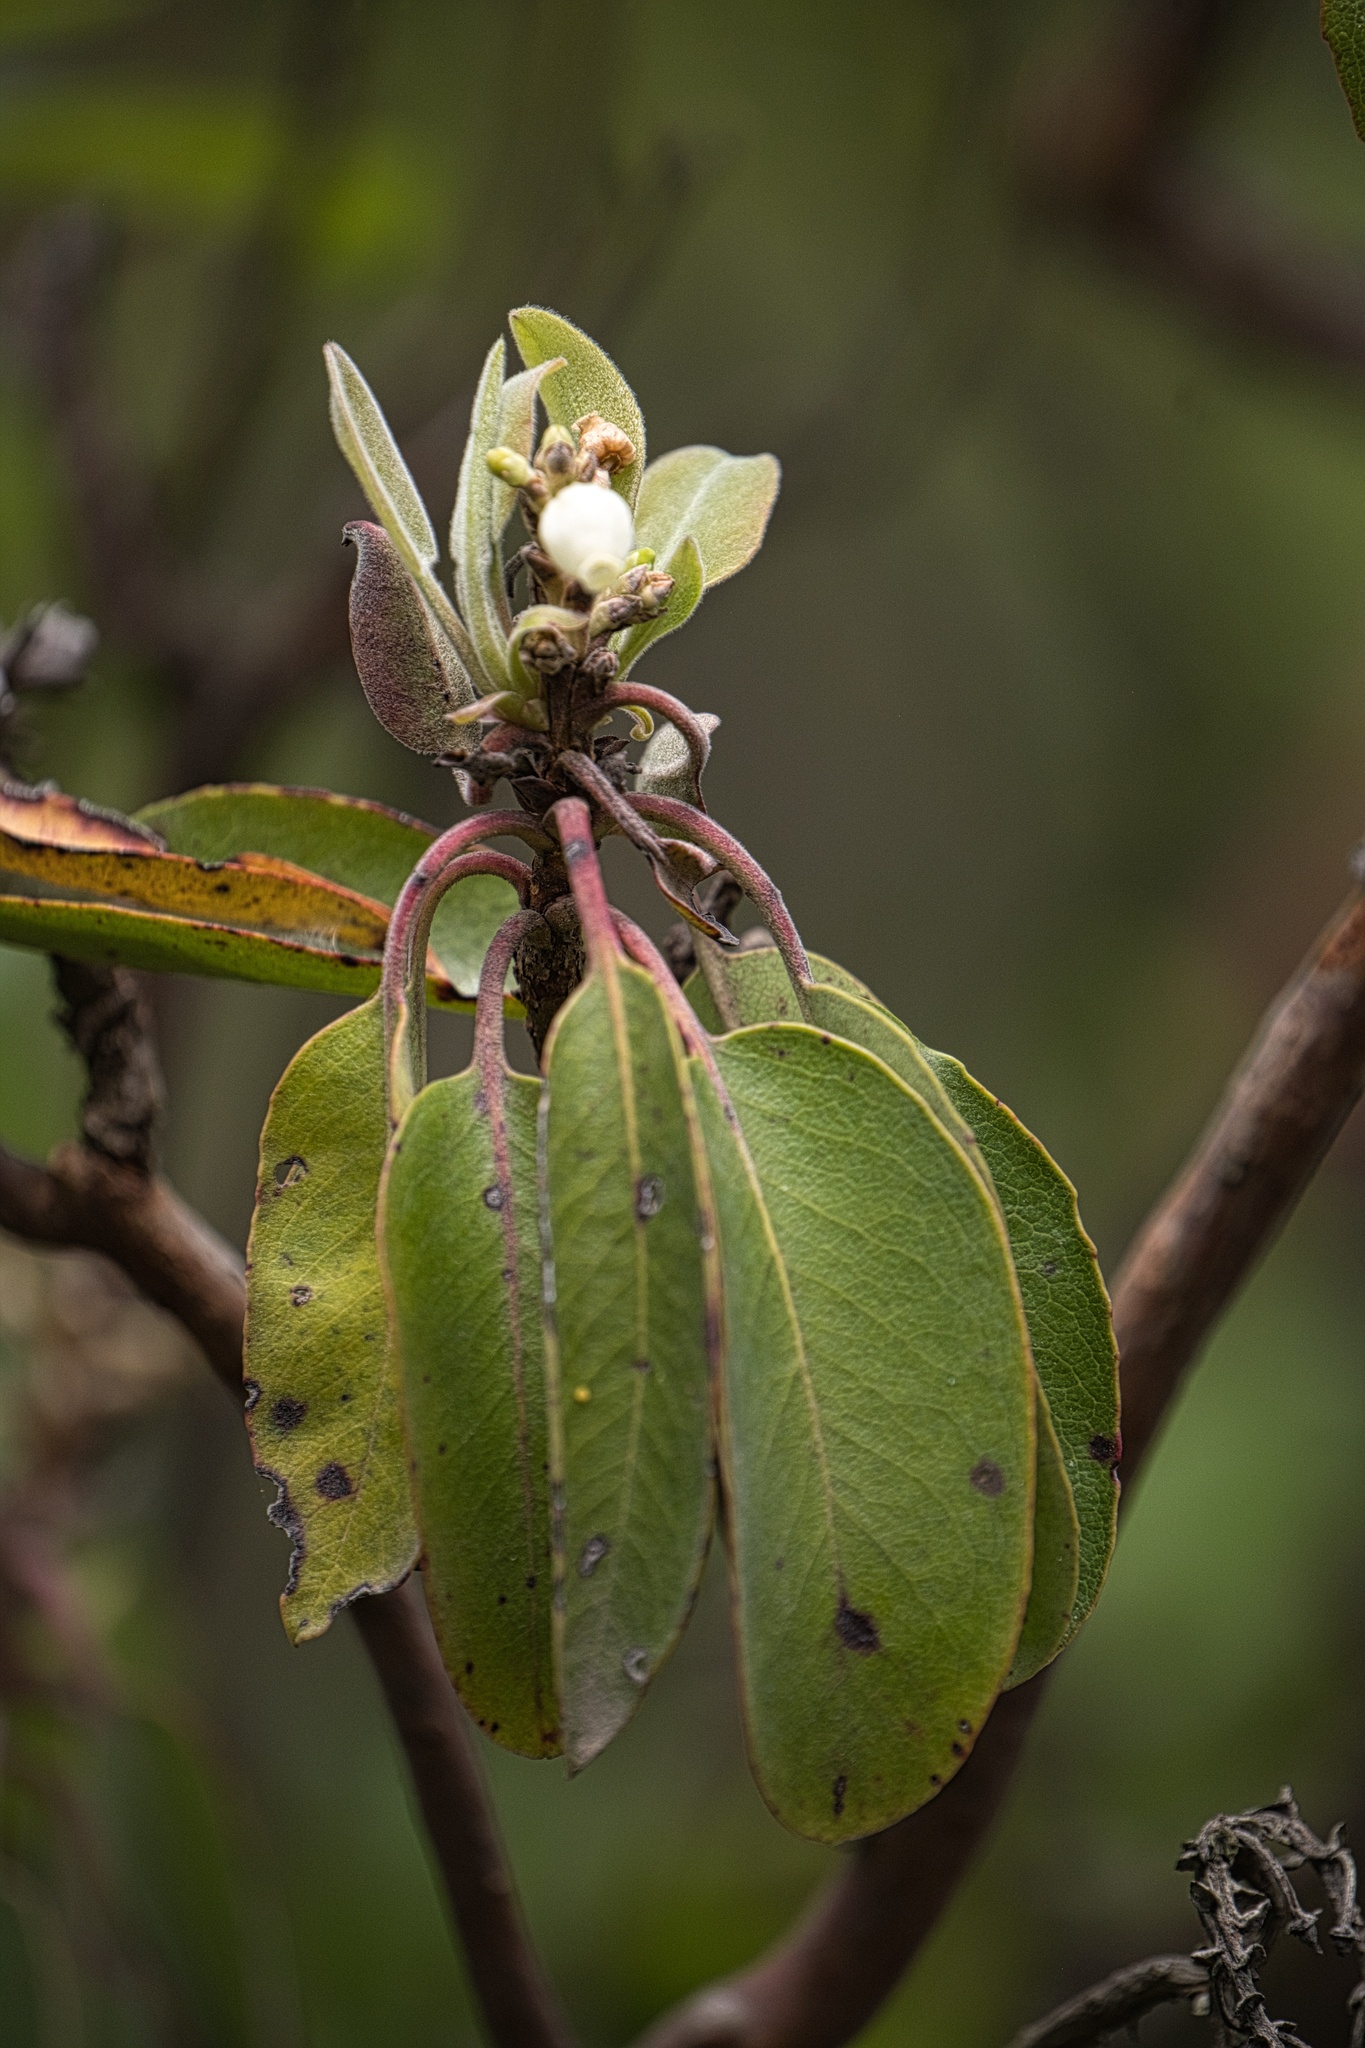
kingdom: Plantae
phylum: Tracheophyta
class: Magnoliopsida
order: Ericales
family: Ericaceae
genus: Arbutus
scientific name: Arbutus xalapensis
